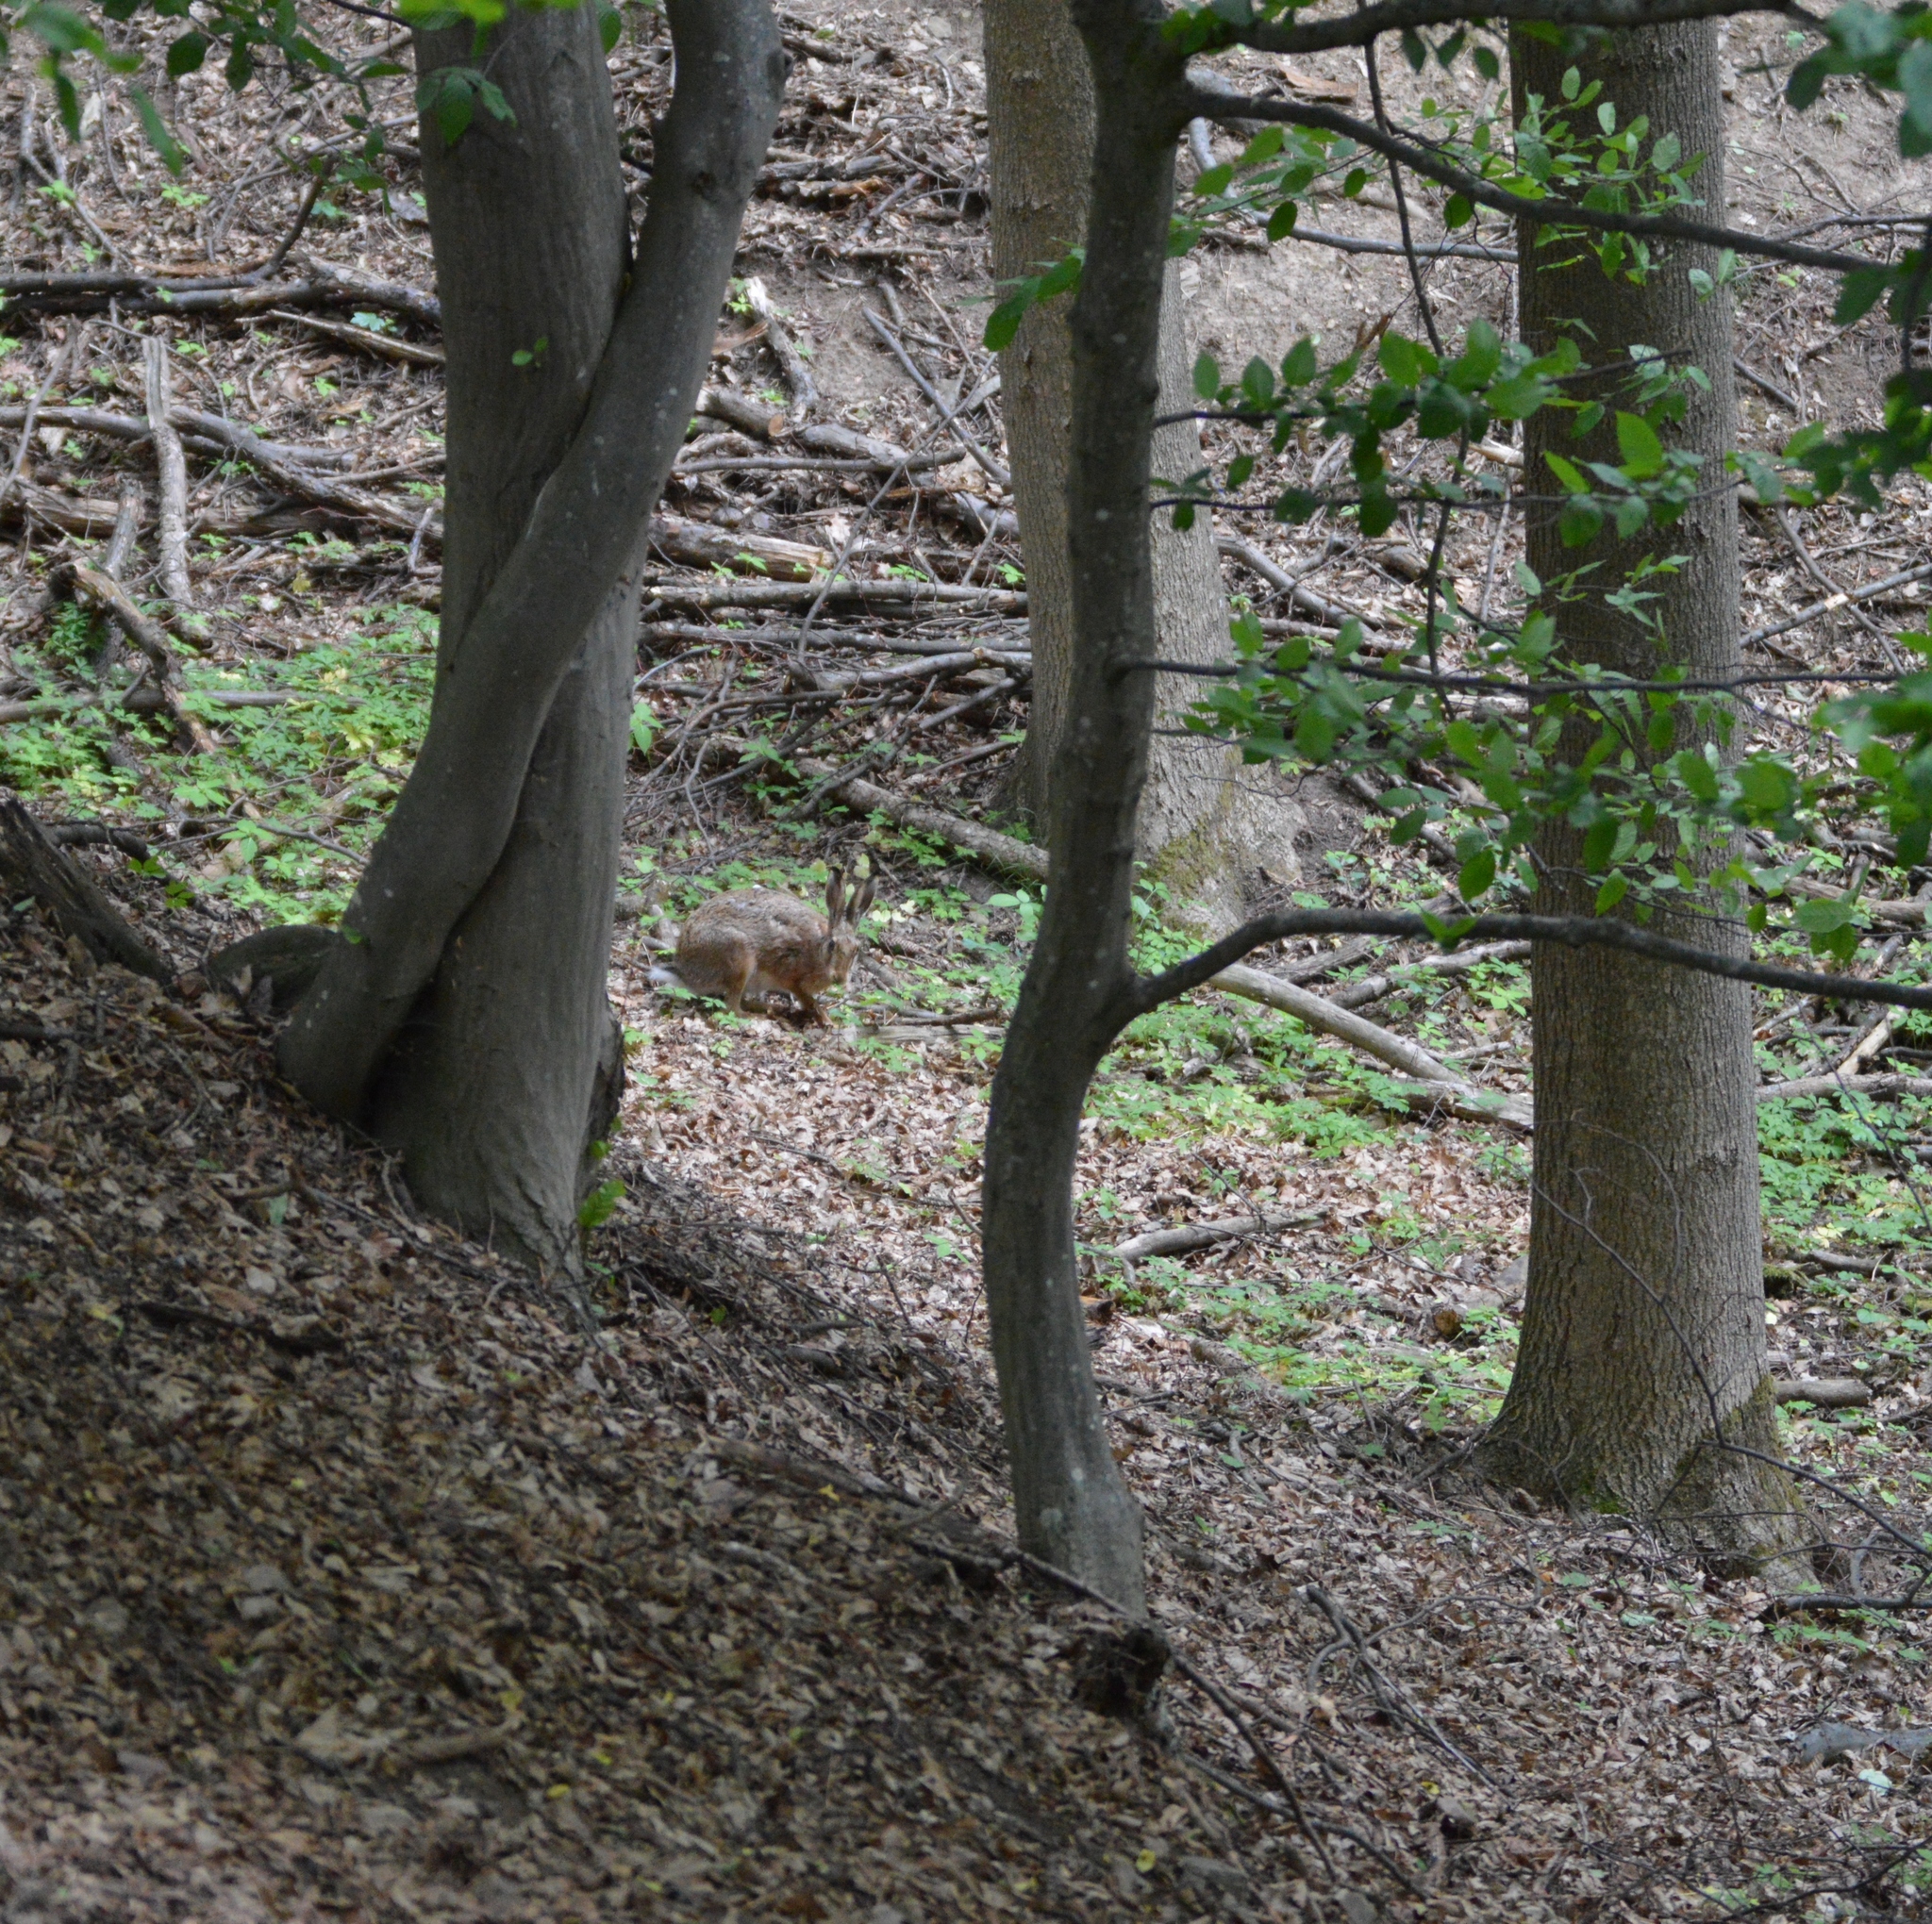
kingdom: Animalia
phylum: Chordata
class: Mammalia
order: Lagomorpha
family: Leporidae
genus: Lepus
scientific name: Lepus europaeus
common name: European hare
